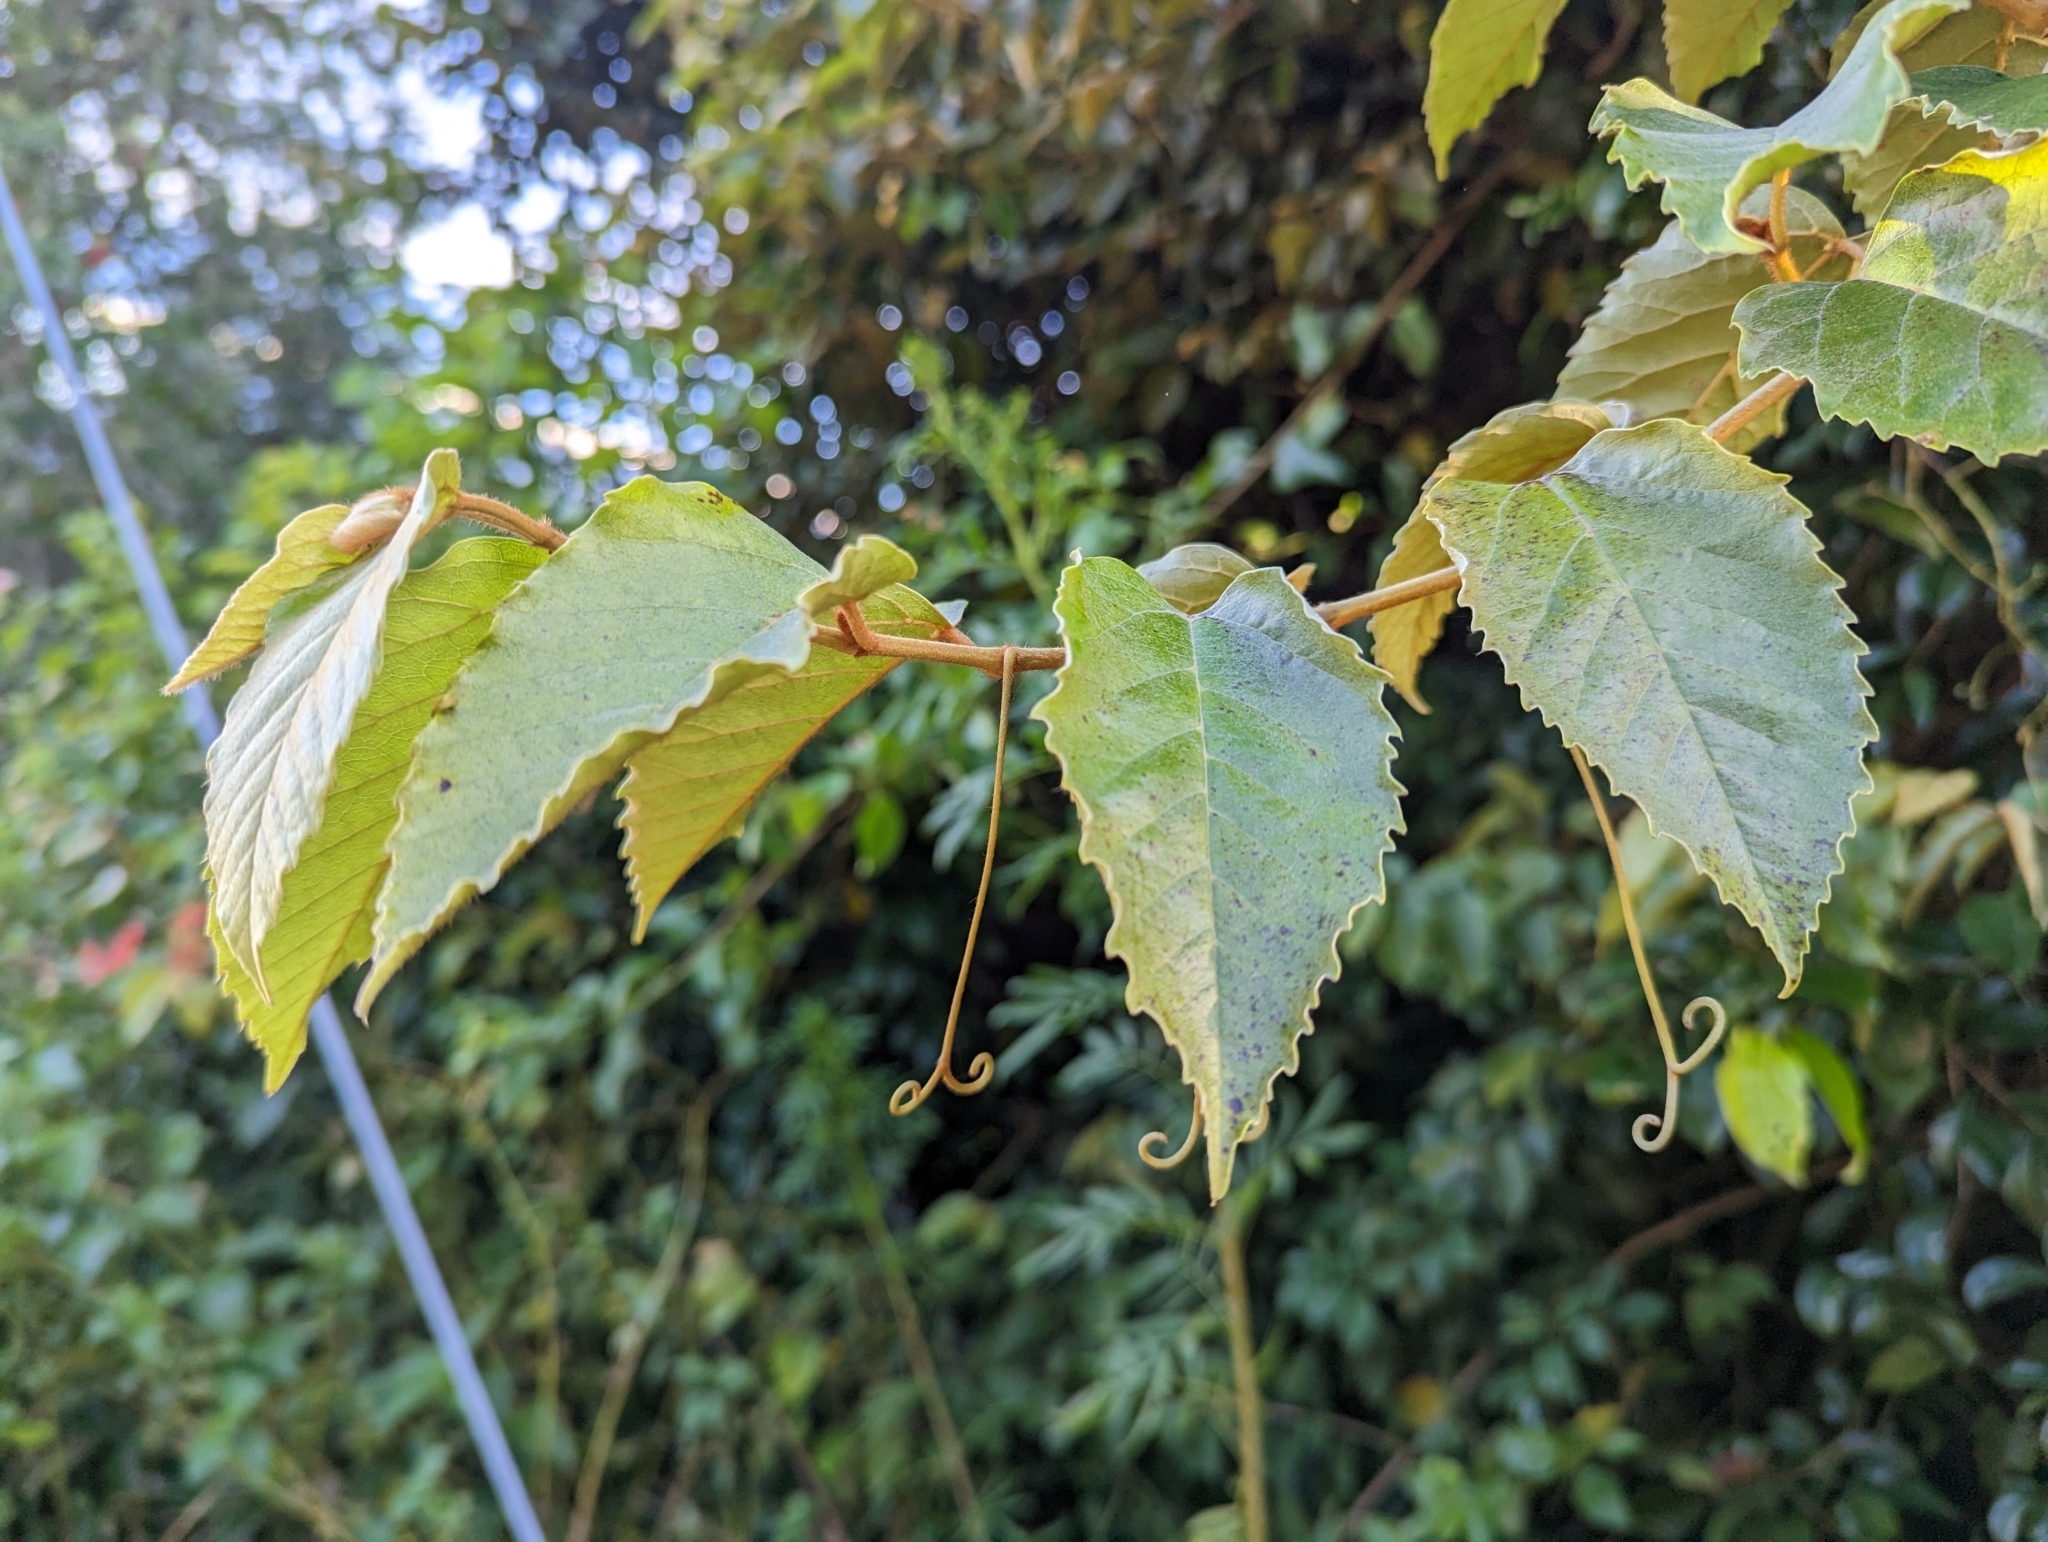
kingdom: Plantae
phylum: Tracheophyta
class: Magnoliopsida
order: Vitales
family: Vitaceae
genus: Cissus
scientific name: Cissus antarctica
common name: Kangaroo vine
